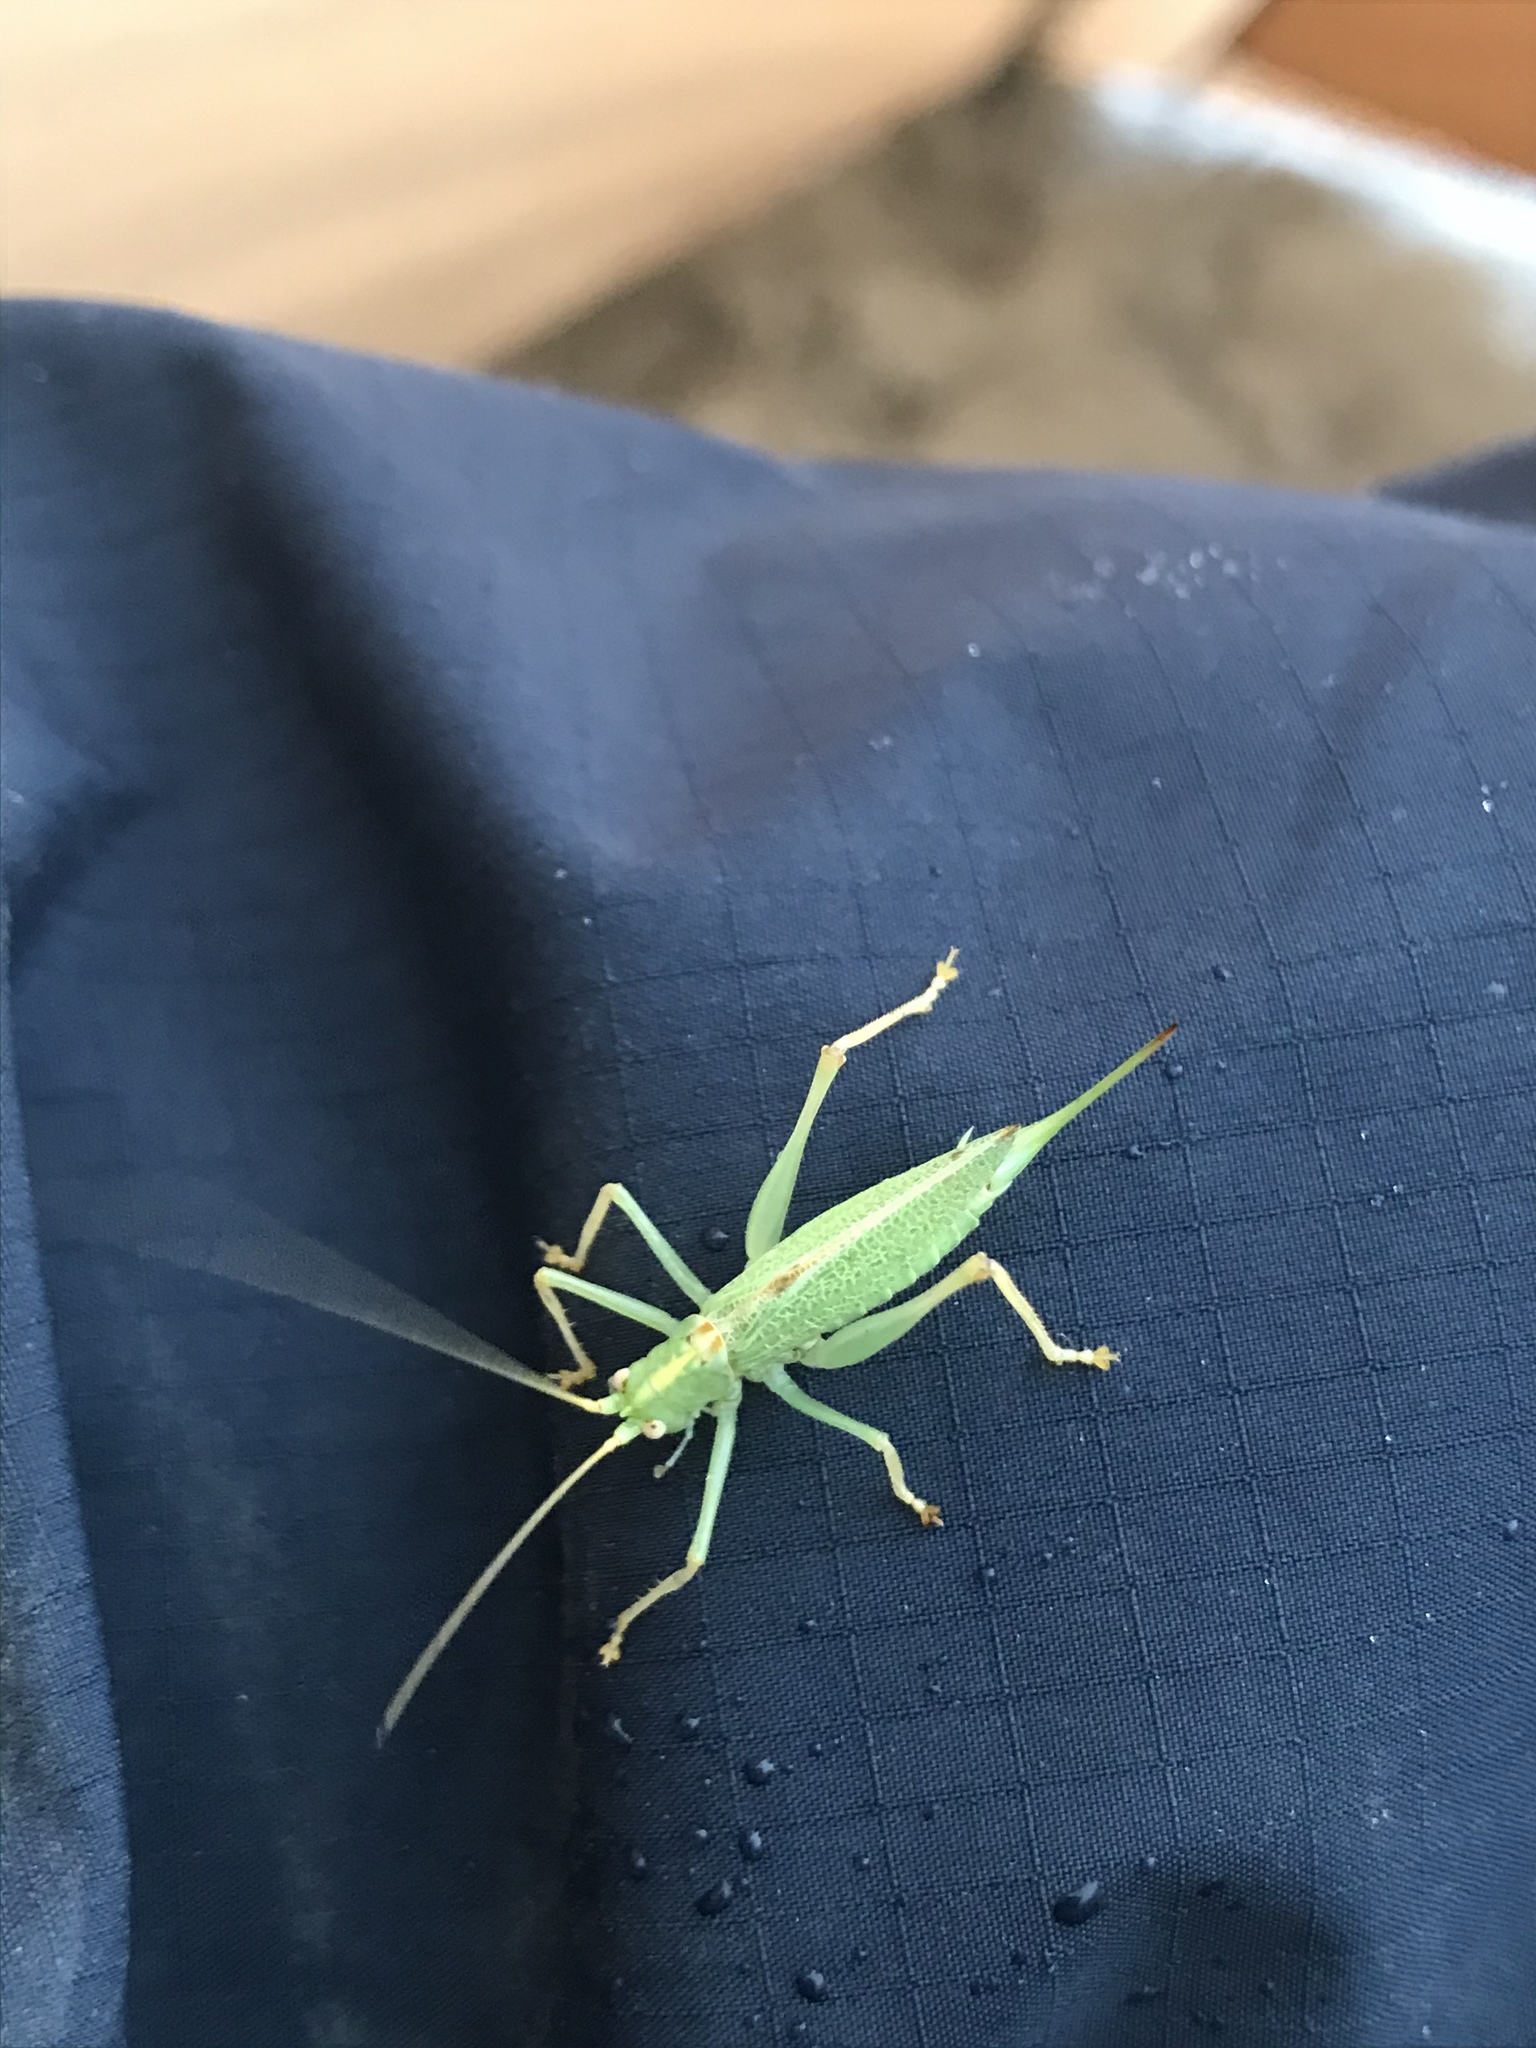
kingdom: Animalia
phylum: Arthropoda
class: Insecta
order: Orthoptera
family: Tettigoniidae
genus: Meconema
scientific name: Meconema thalassinum
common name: Oak bush-cricket
